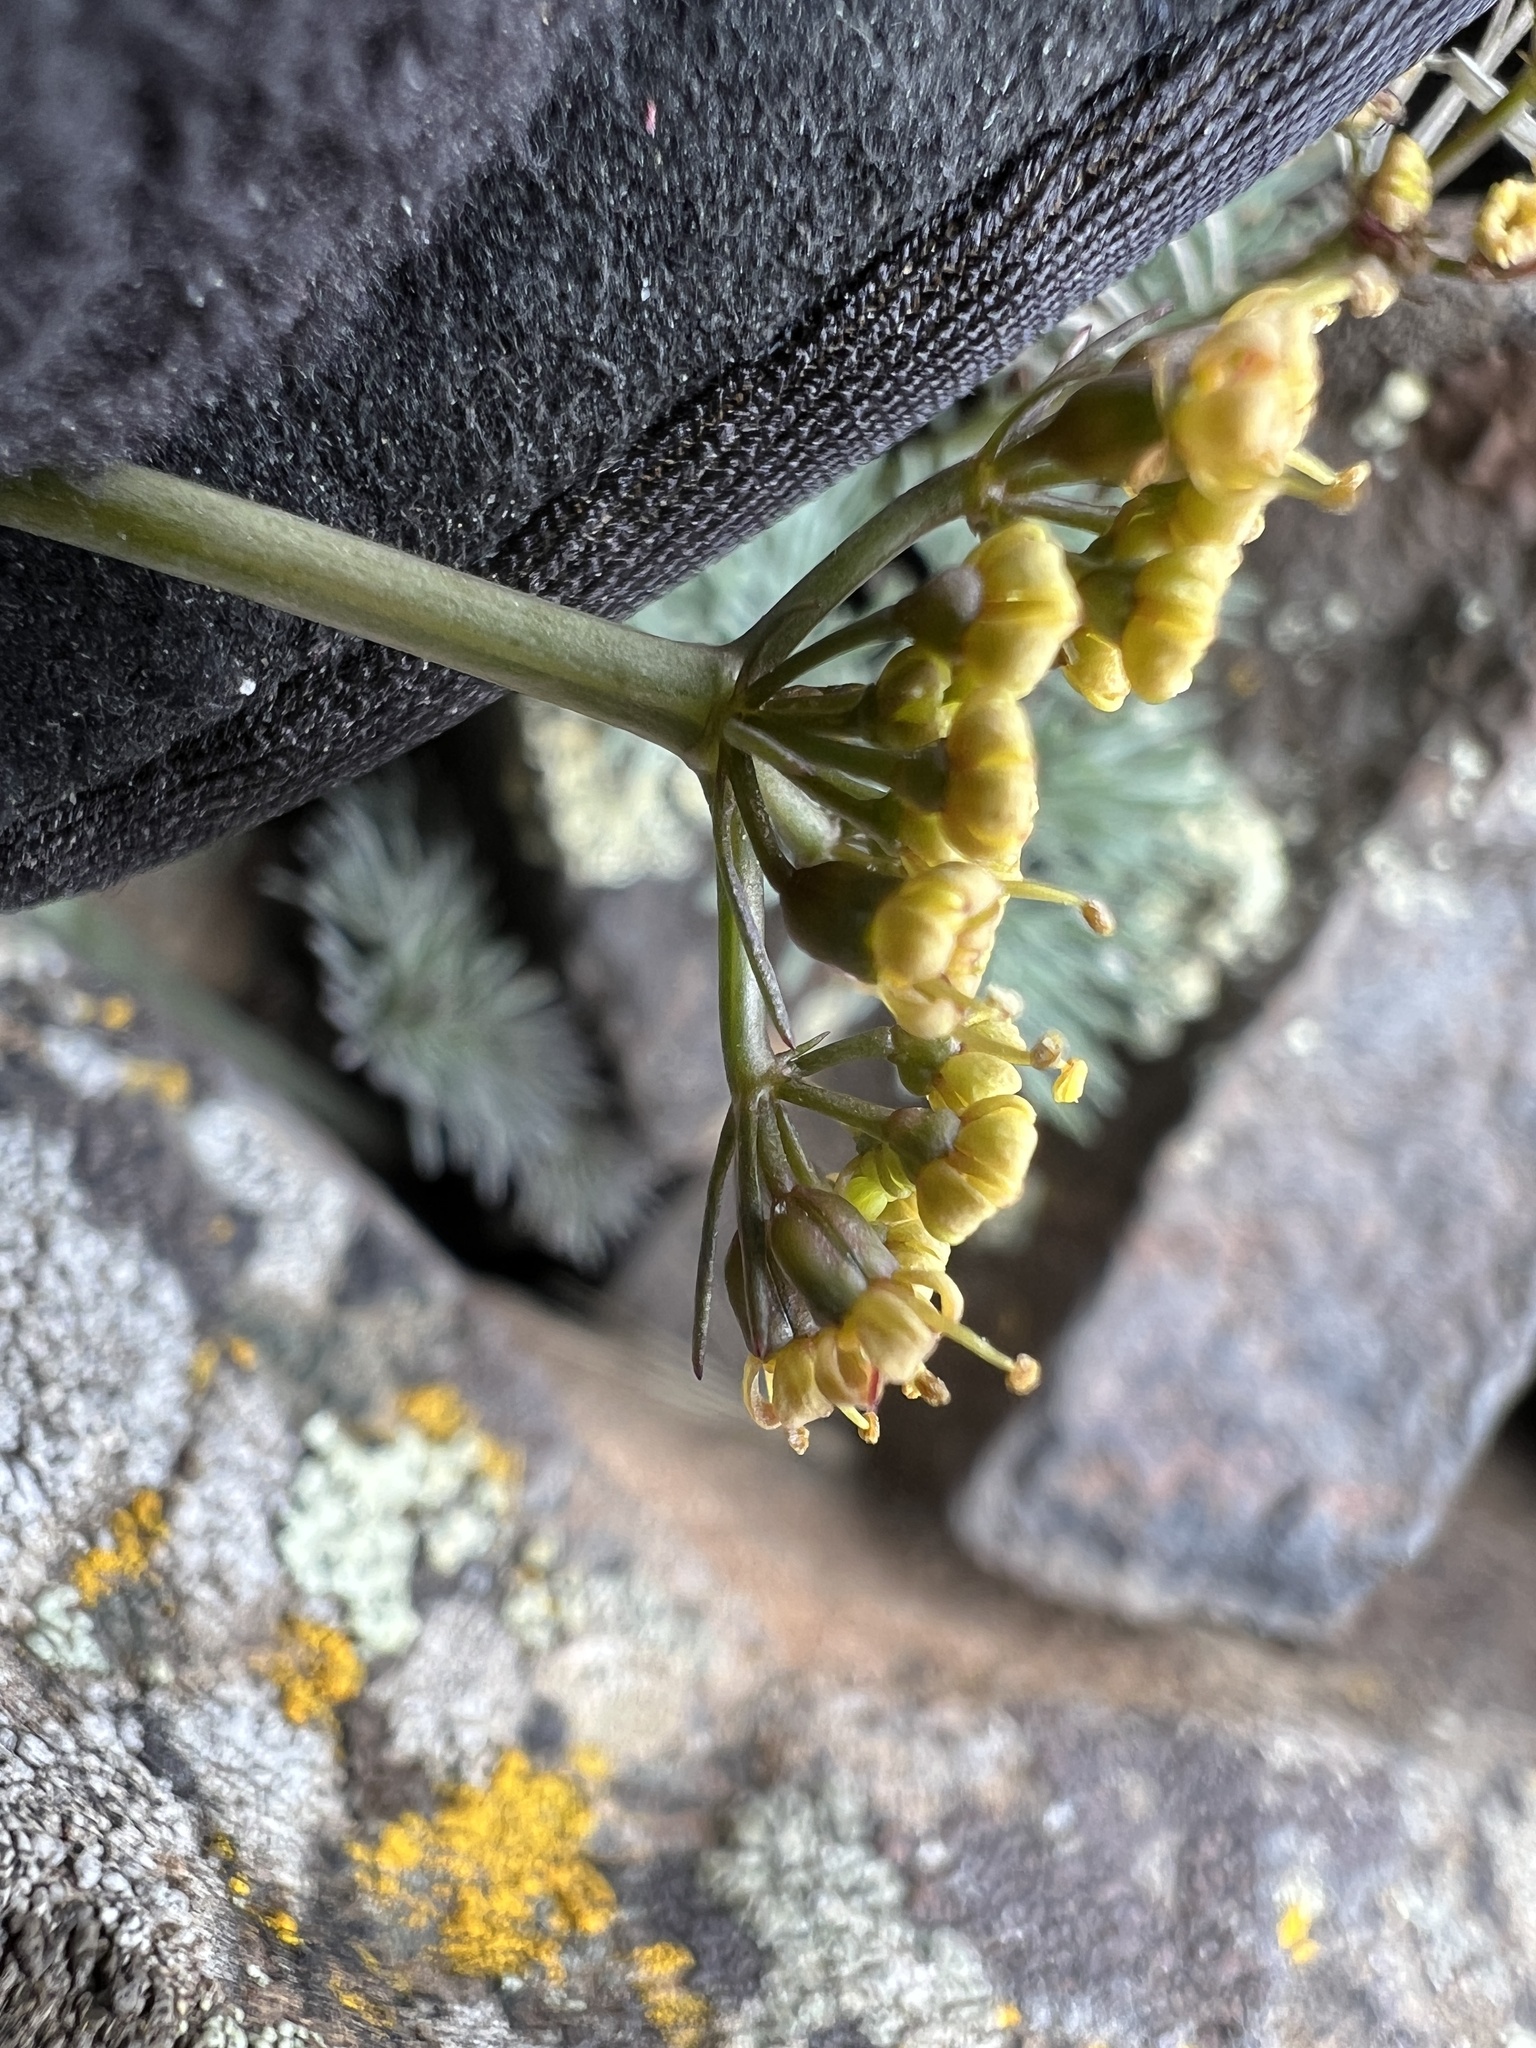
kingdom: Plantae
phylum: Tracheophyta
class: Magnoliopsida
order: Apiales
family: Apiaceae
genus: Lomatium
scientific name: Lomatium tuberosum
